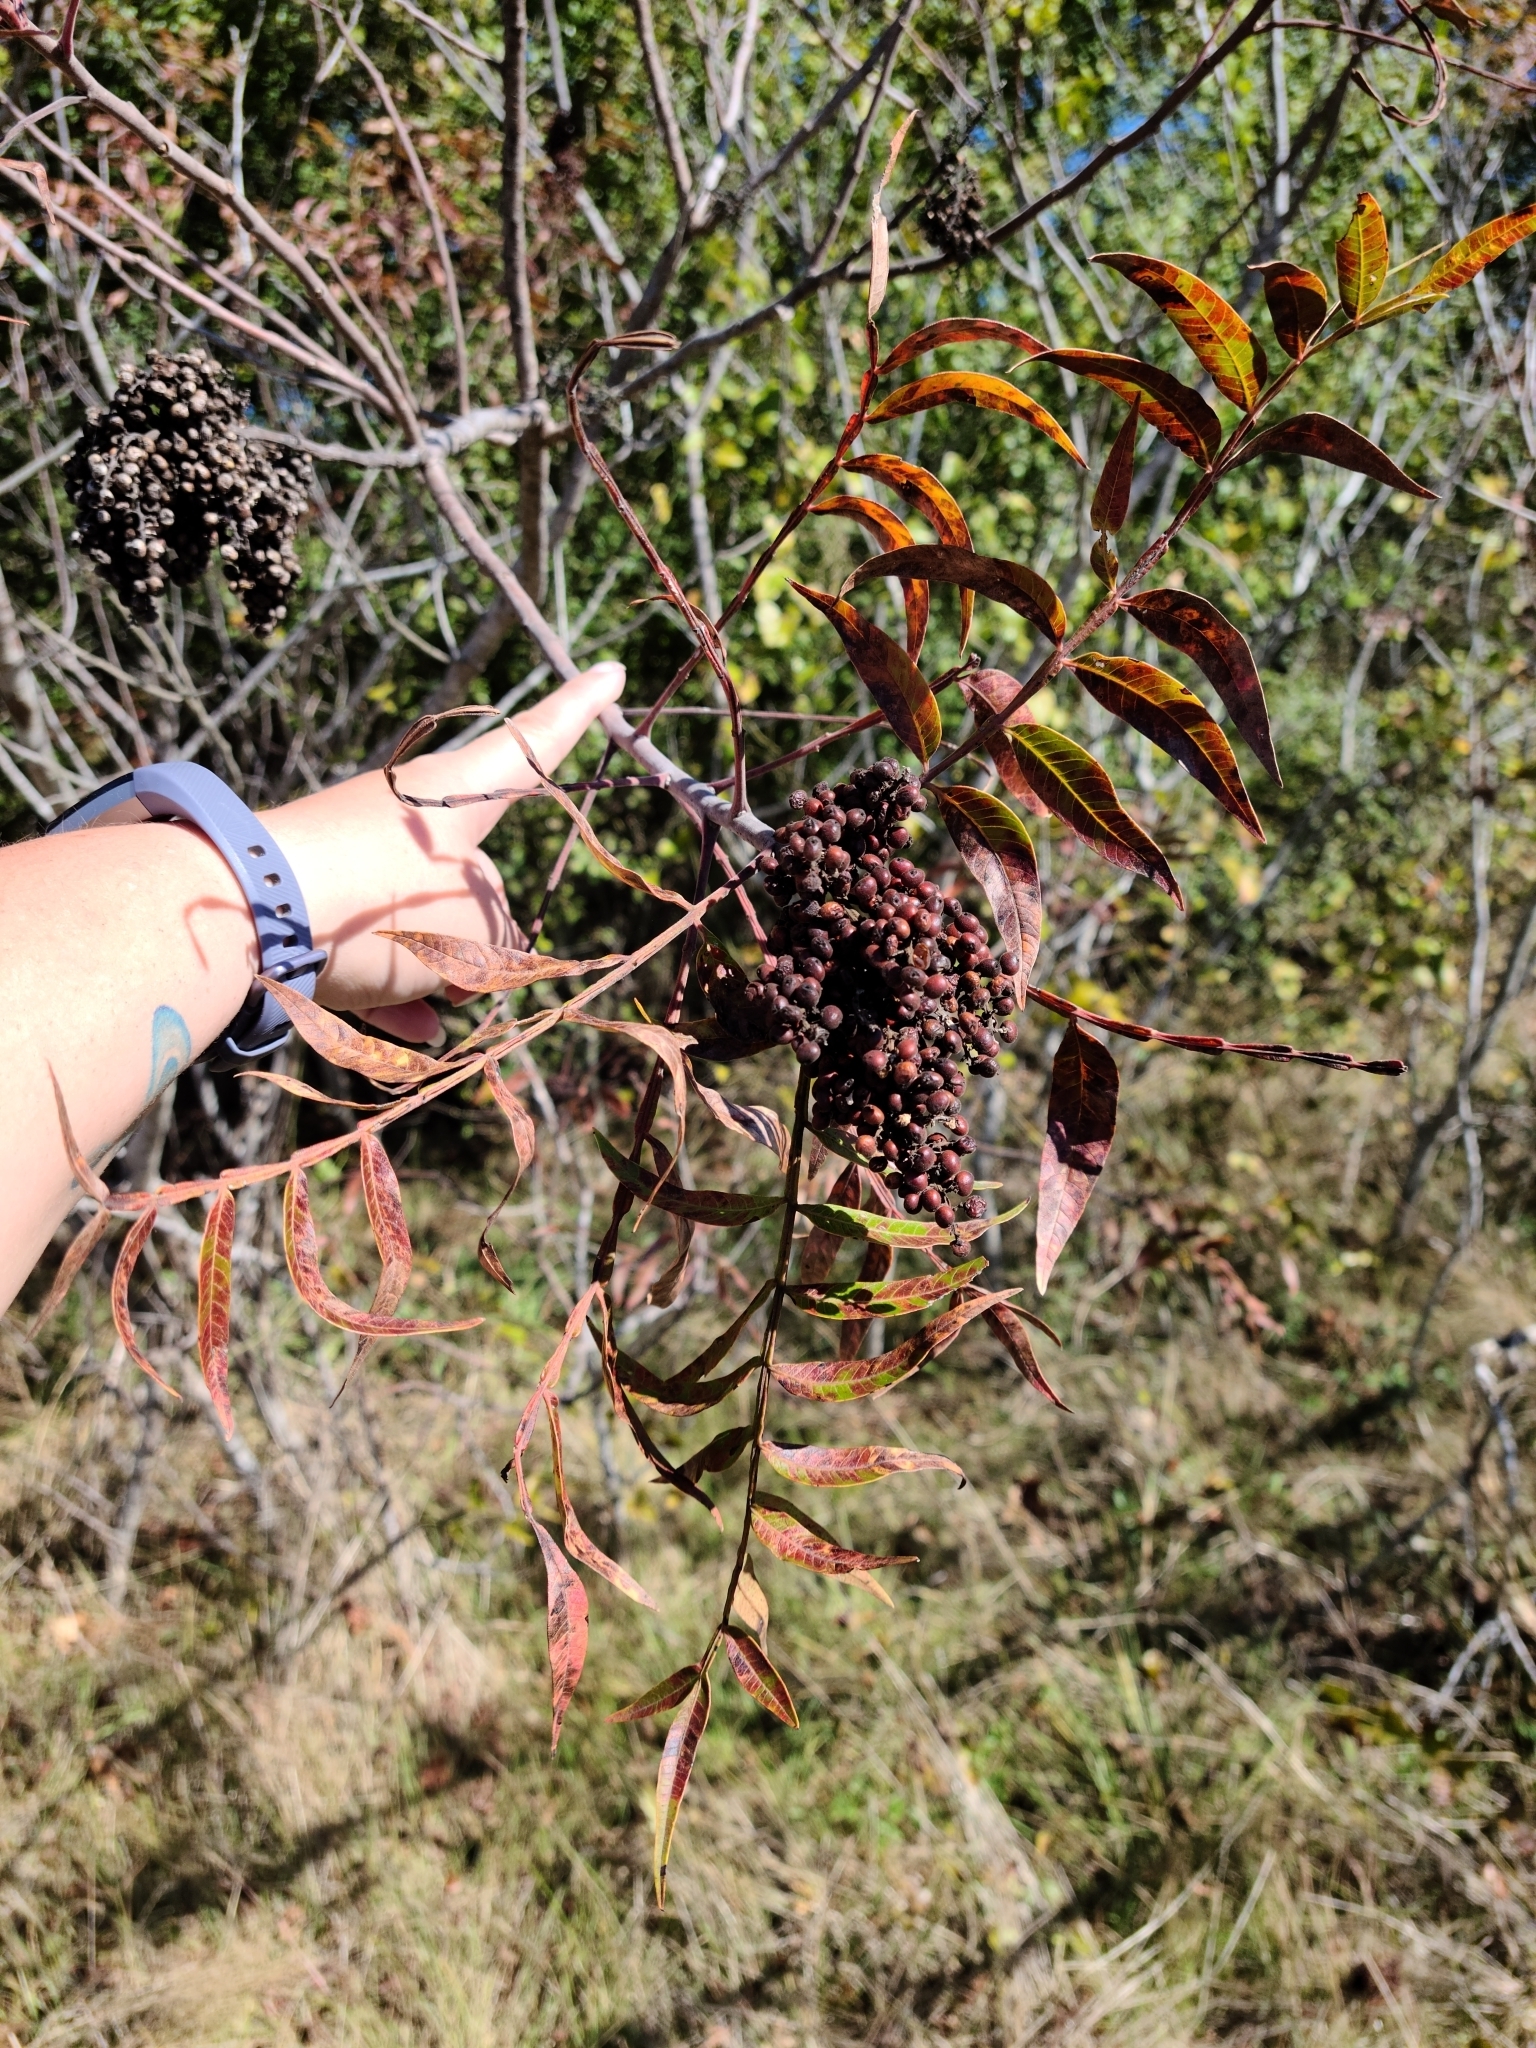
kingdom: Plantae
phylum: Tracheophyta
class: Magnoliopsida
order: Sapindales
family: Anacardiaceae
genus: Rhus
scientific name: Rhus copallina
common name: Shining sumac
